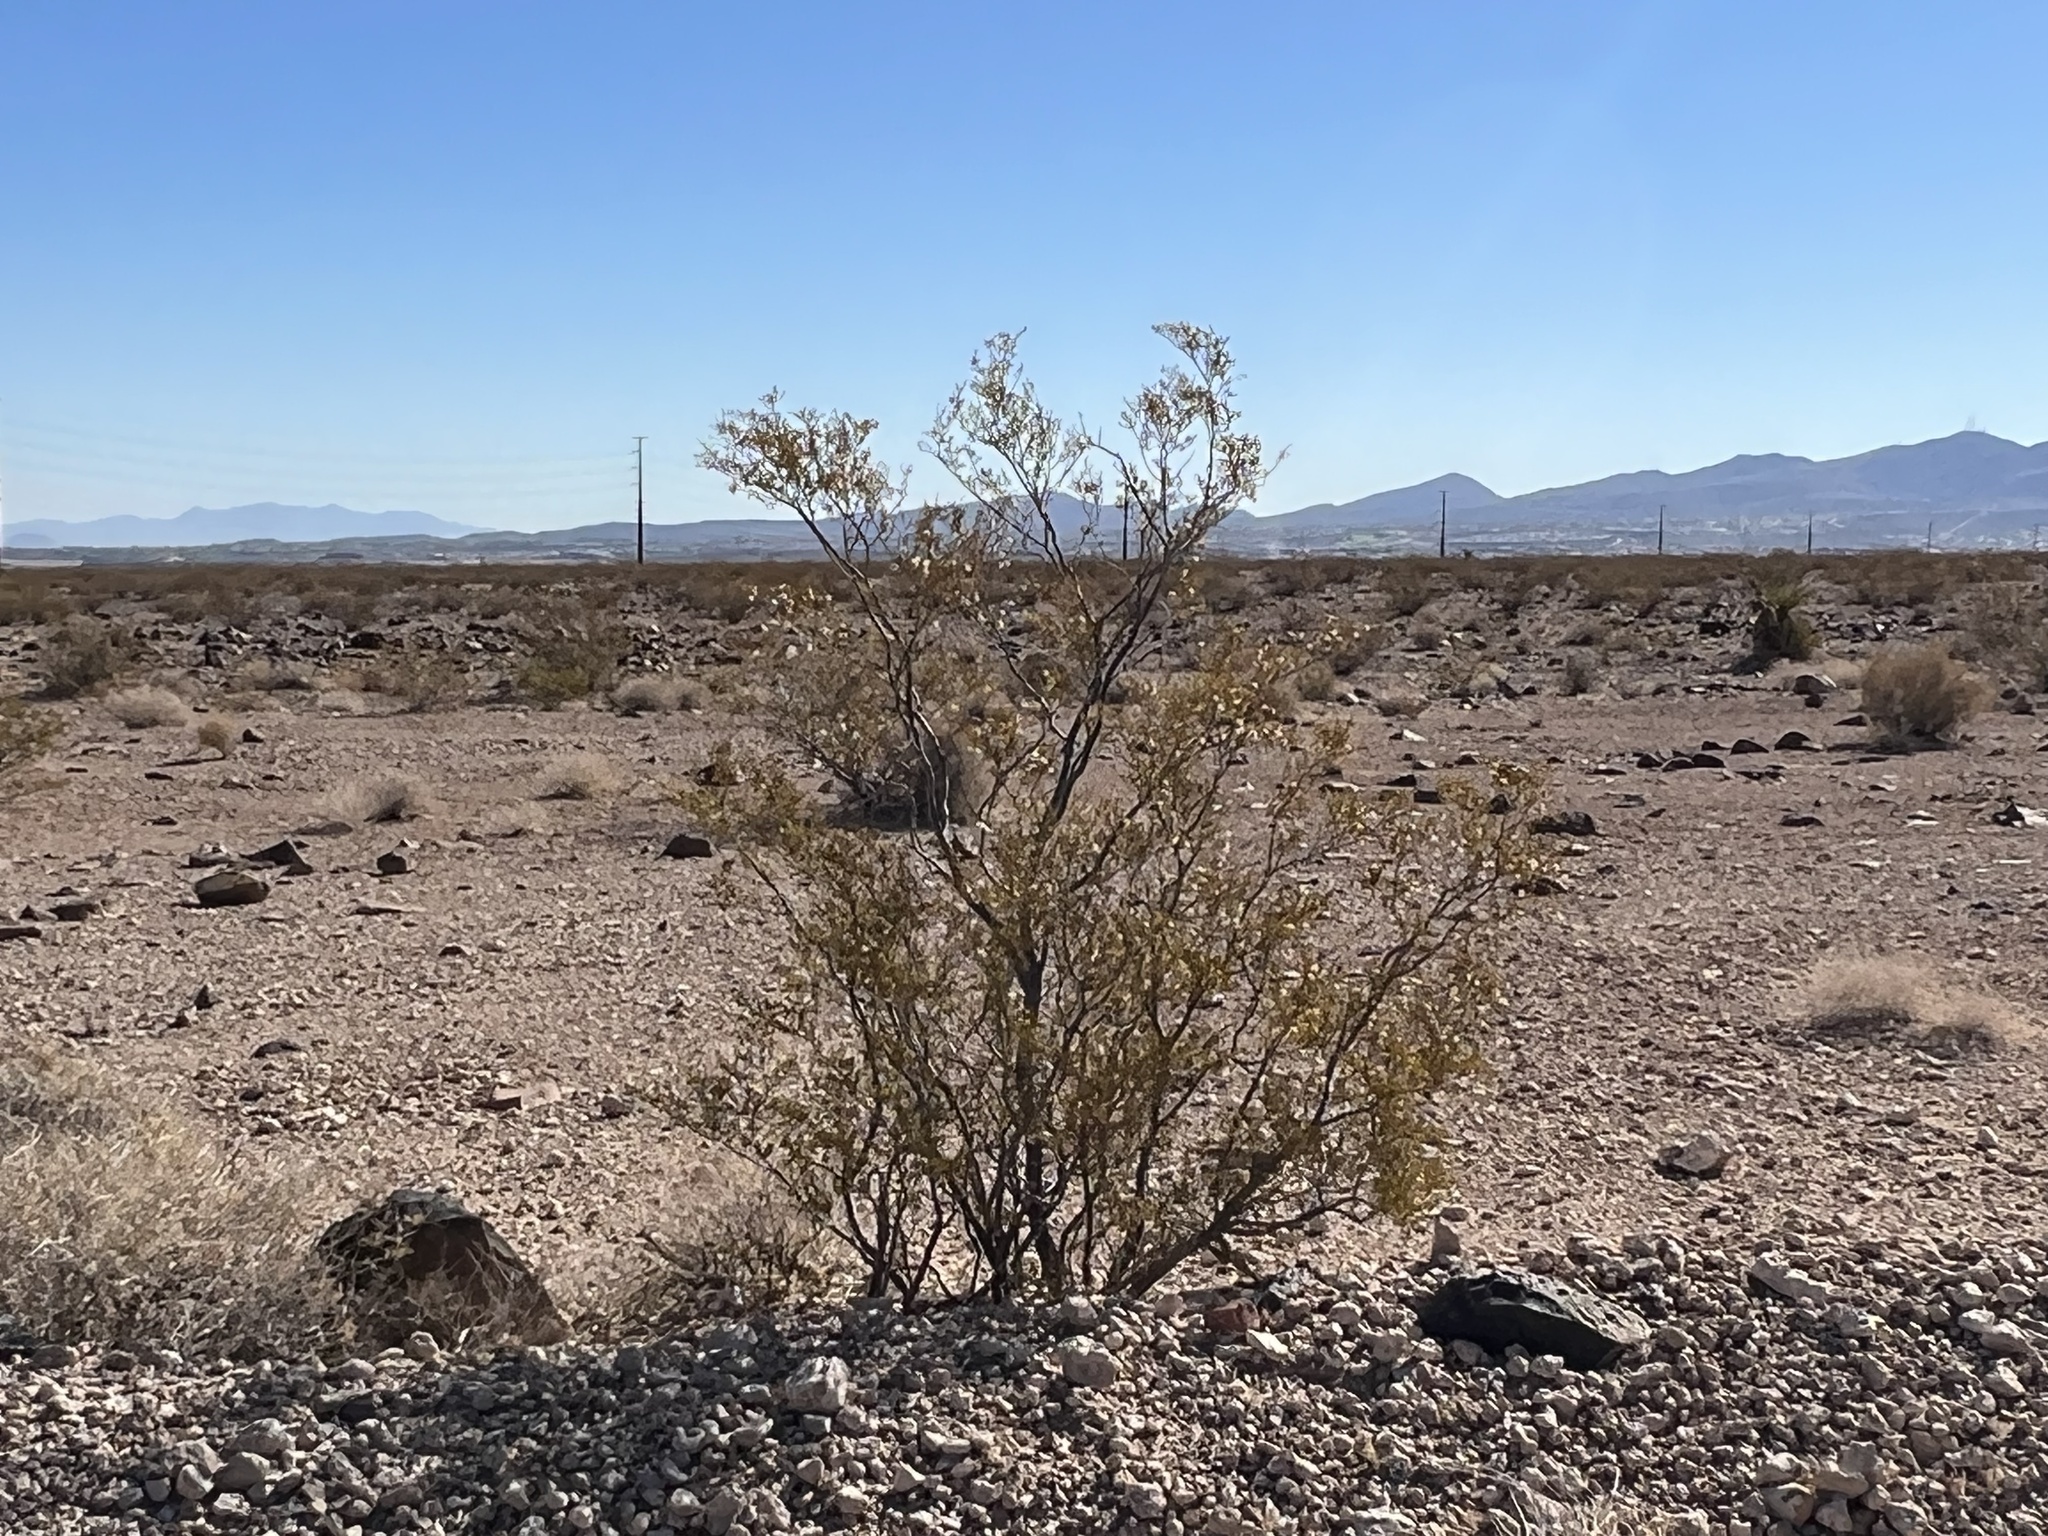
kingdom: Plantae
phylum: Tracheophyta
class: Magnoliopsida
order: Zygophyllales
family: Zygophyllaceae
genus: Larrea
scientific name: Larrea tridentata
